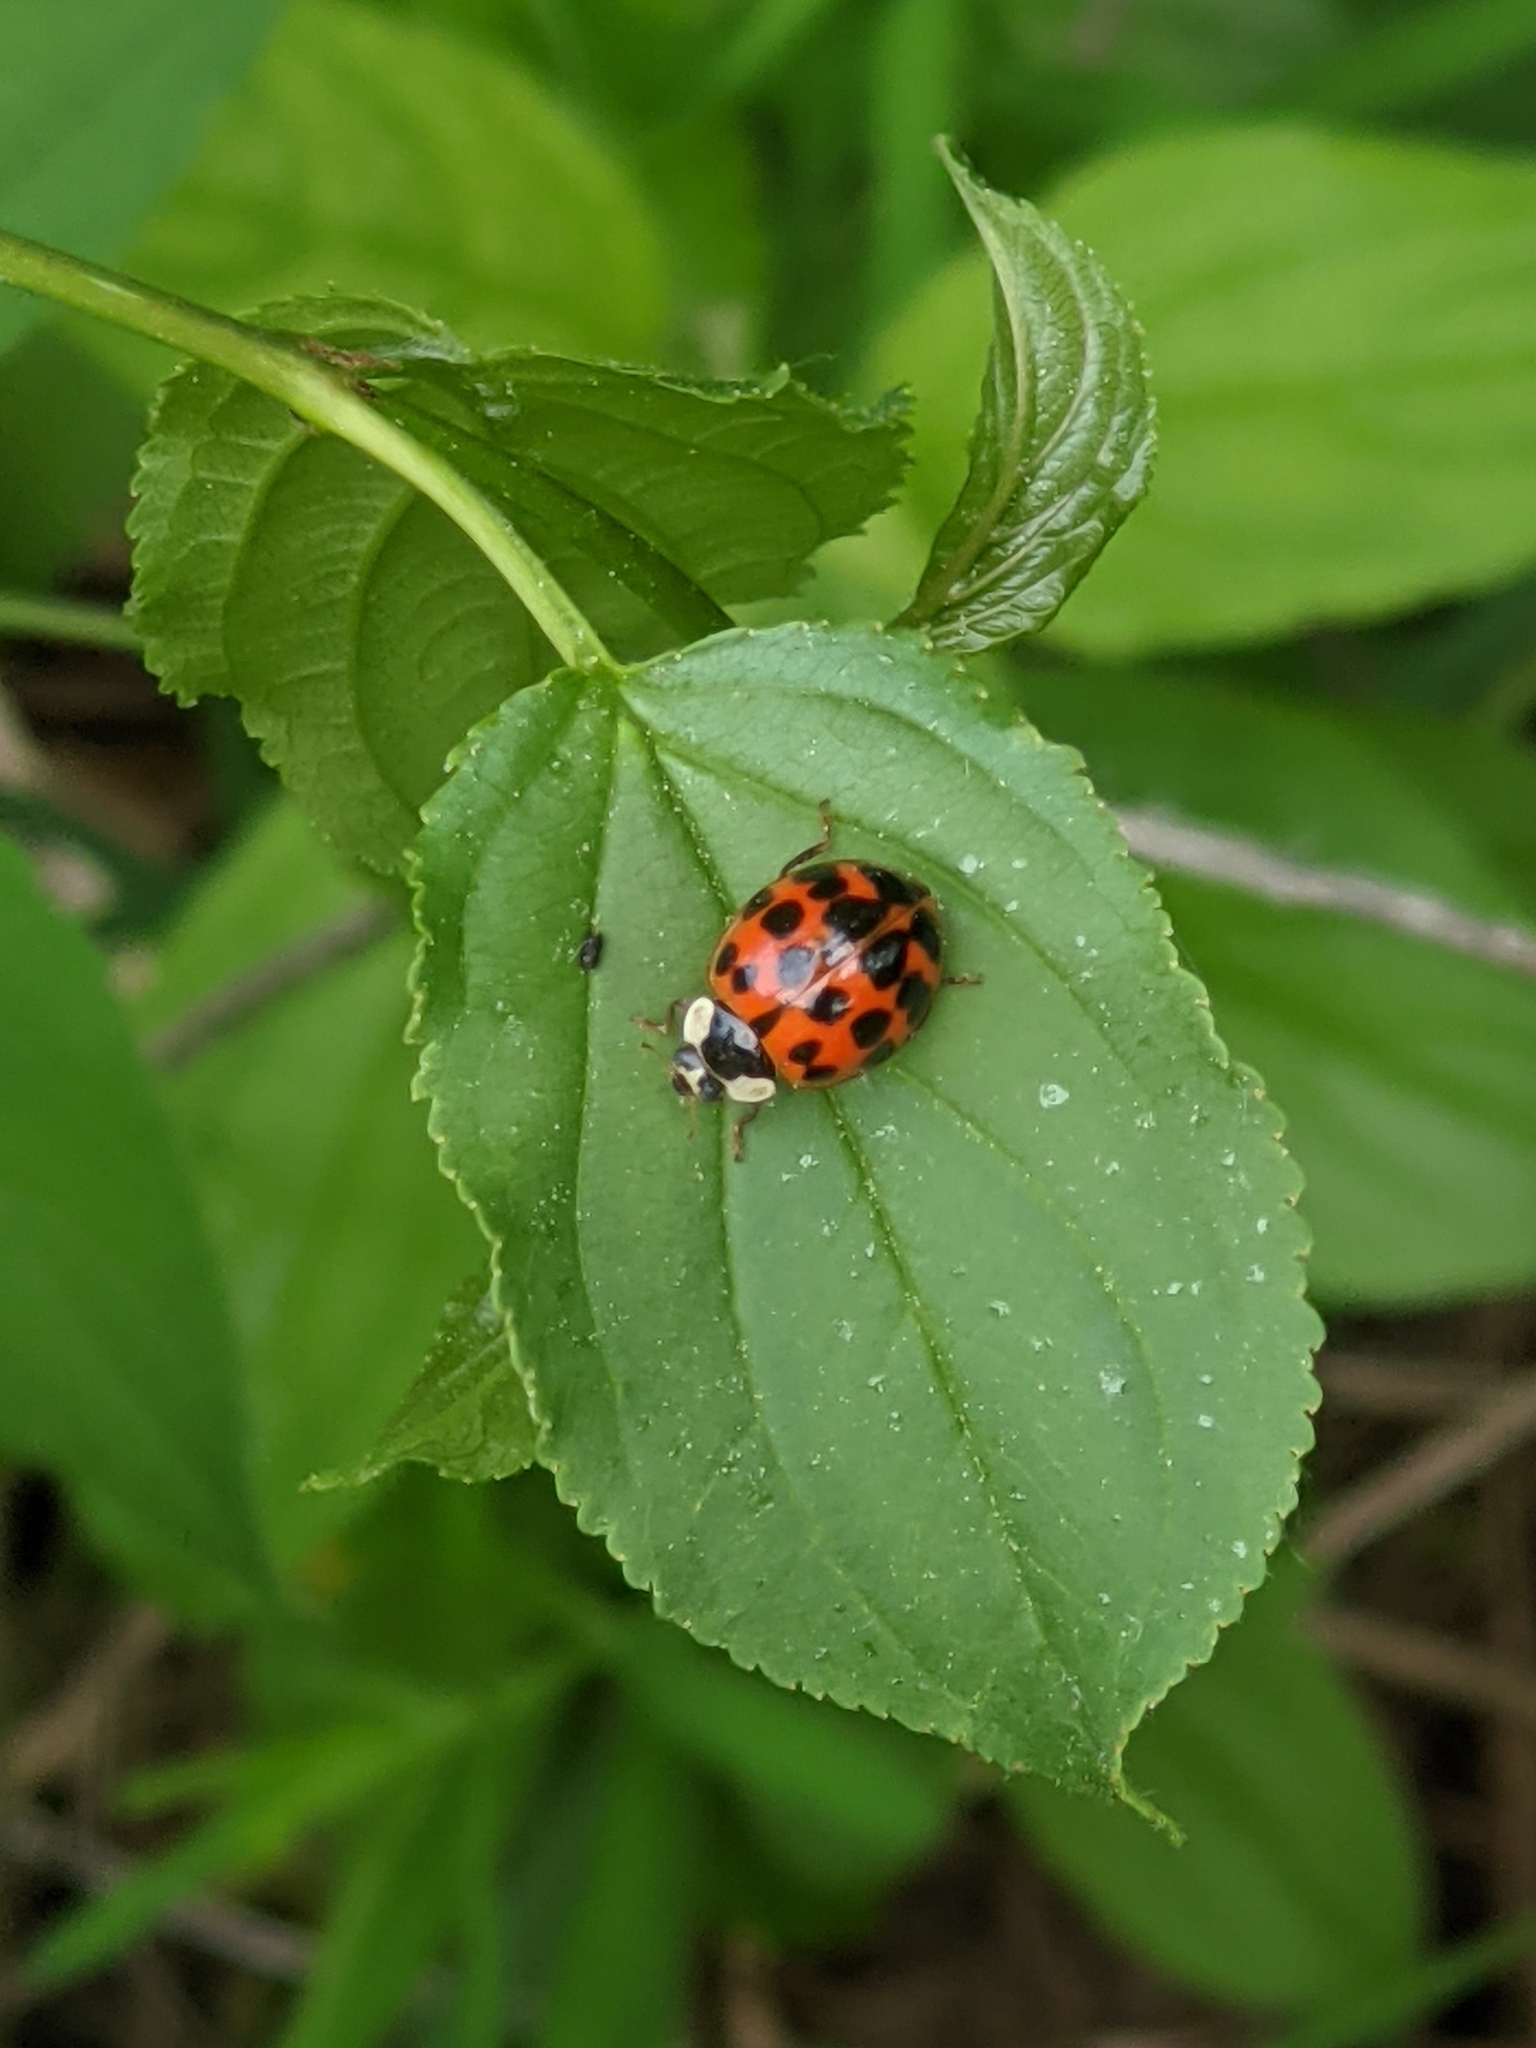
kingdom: Animalia
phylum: Arthropoda
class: Insecta
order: Coleoptera
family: Coccinellidae
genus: Harmonia
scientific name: Harmonia axyridis
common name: Harlequin ladybird
